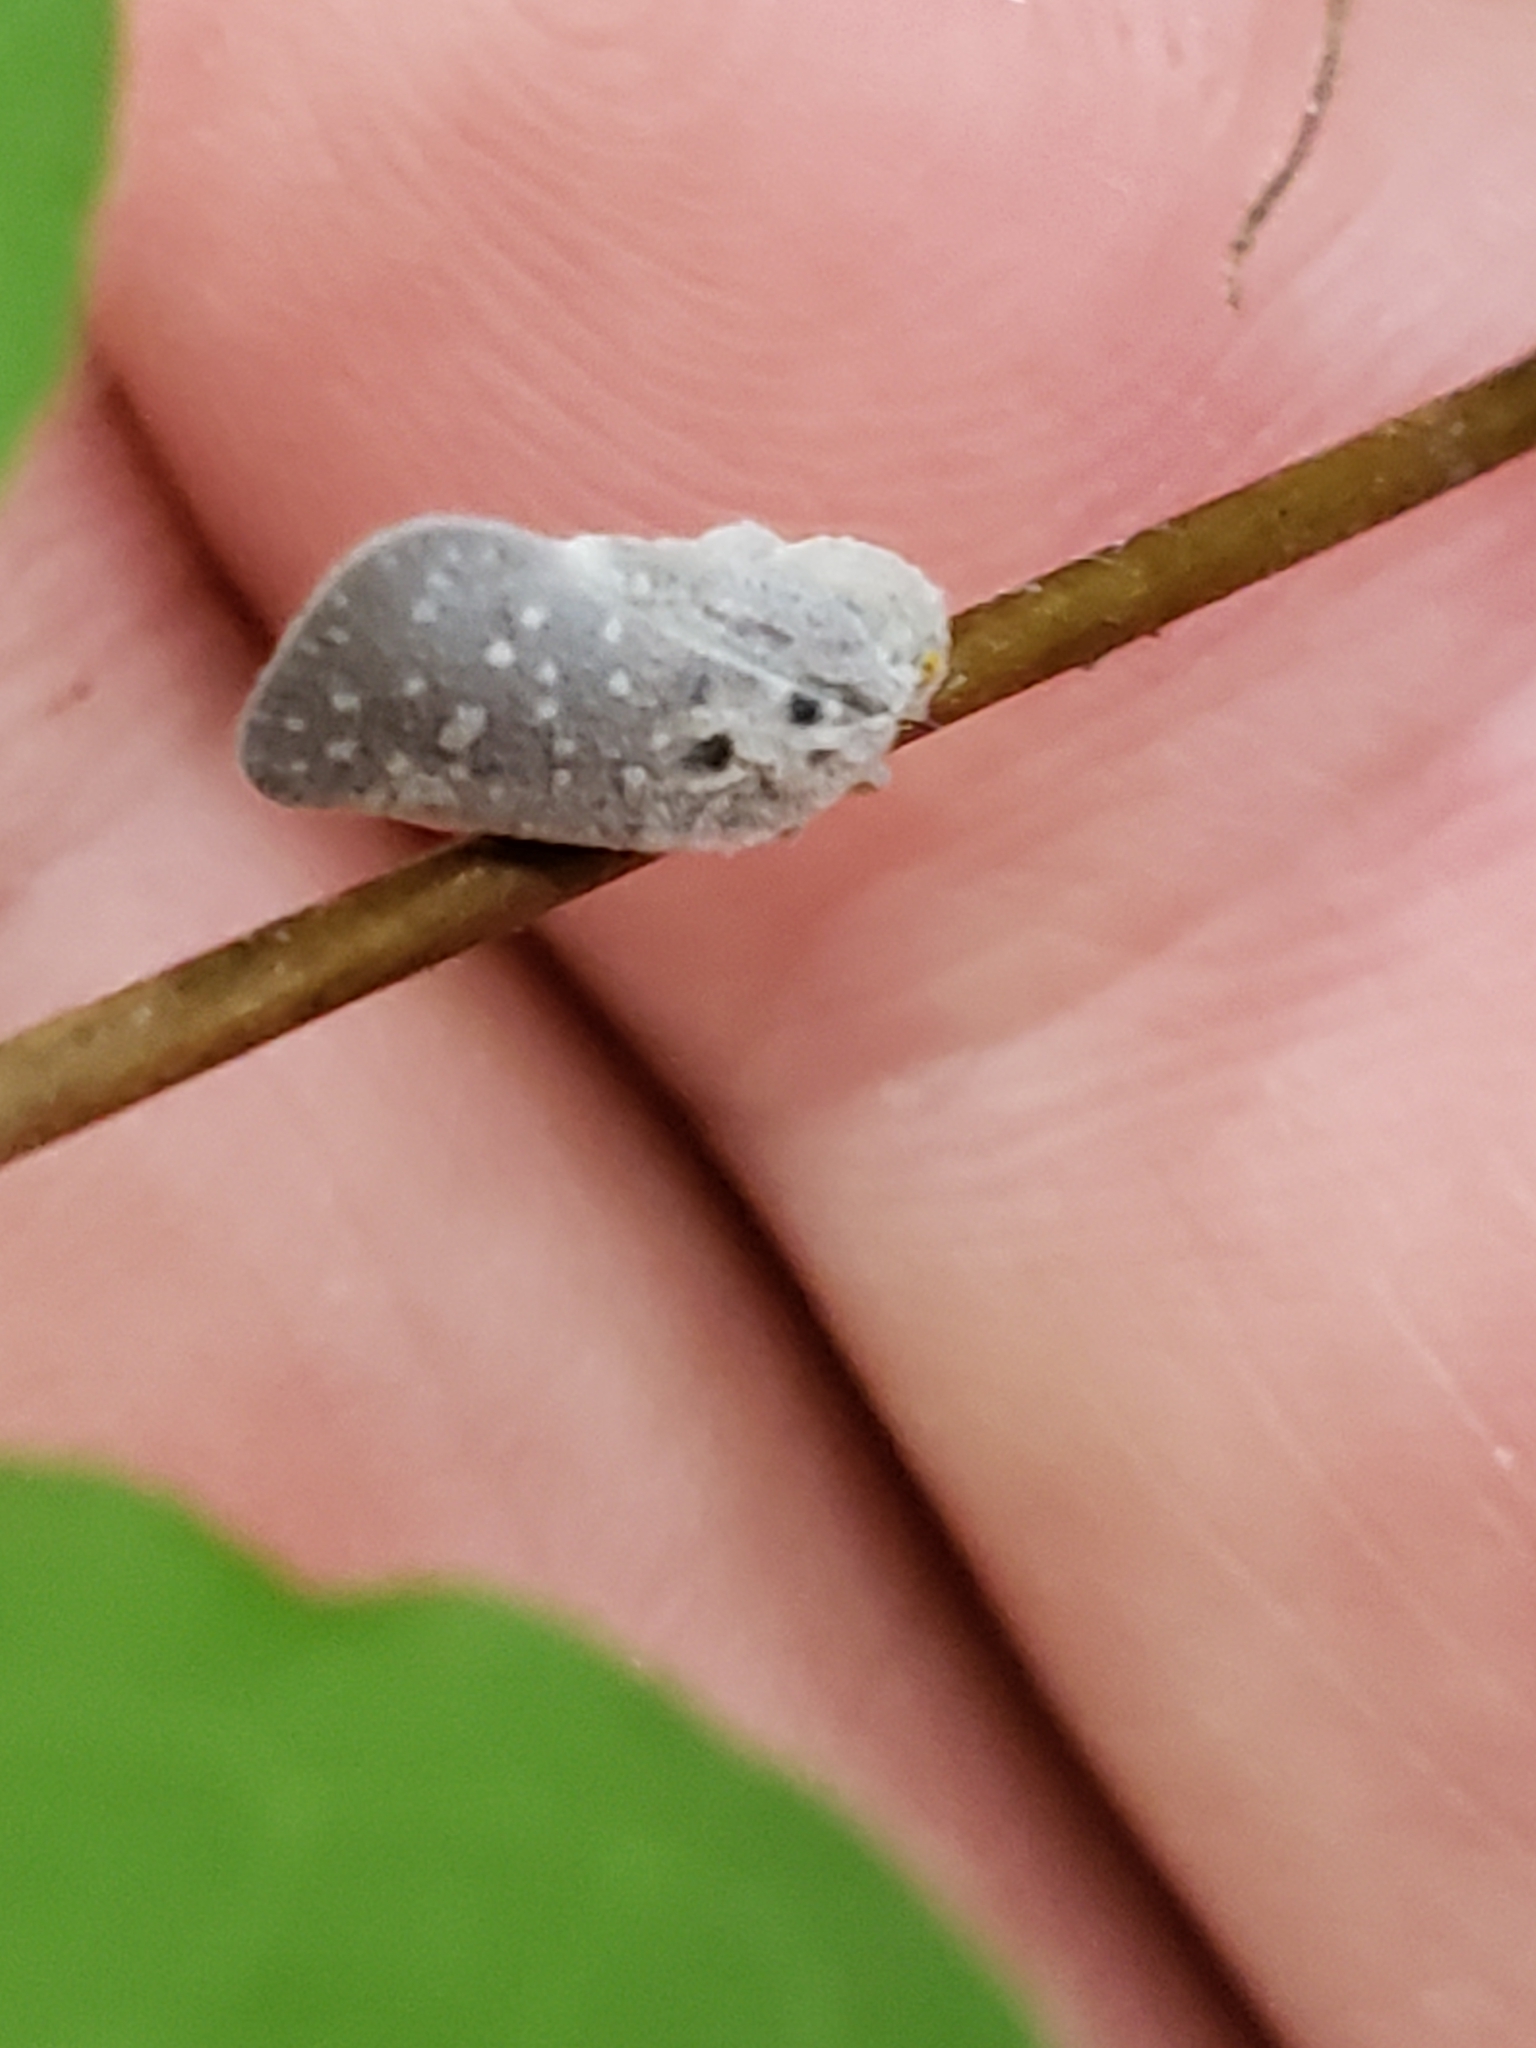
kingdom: Animalia
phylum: Arthropoda
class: Insecta
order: Hemiptera
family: Flatidae
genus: Metcalfa
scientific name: Metcalfa pruinosa
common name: Citrus flatid planthopper
